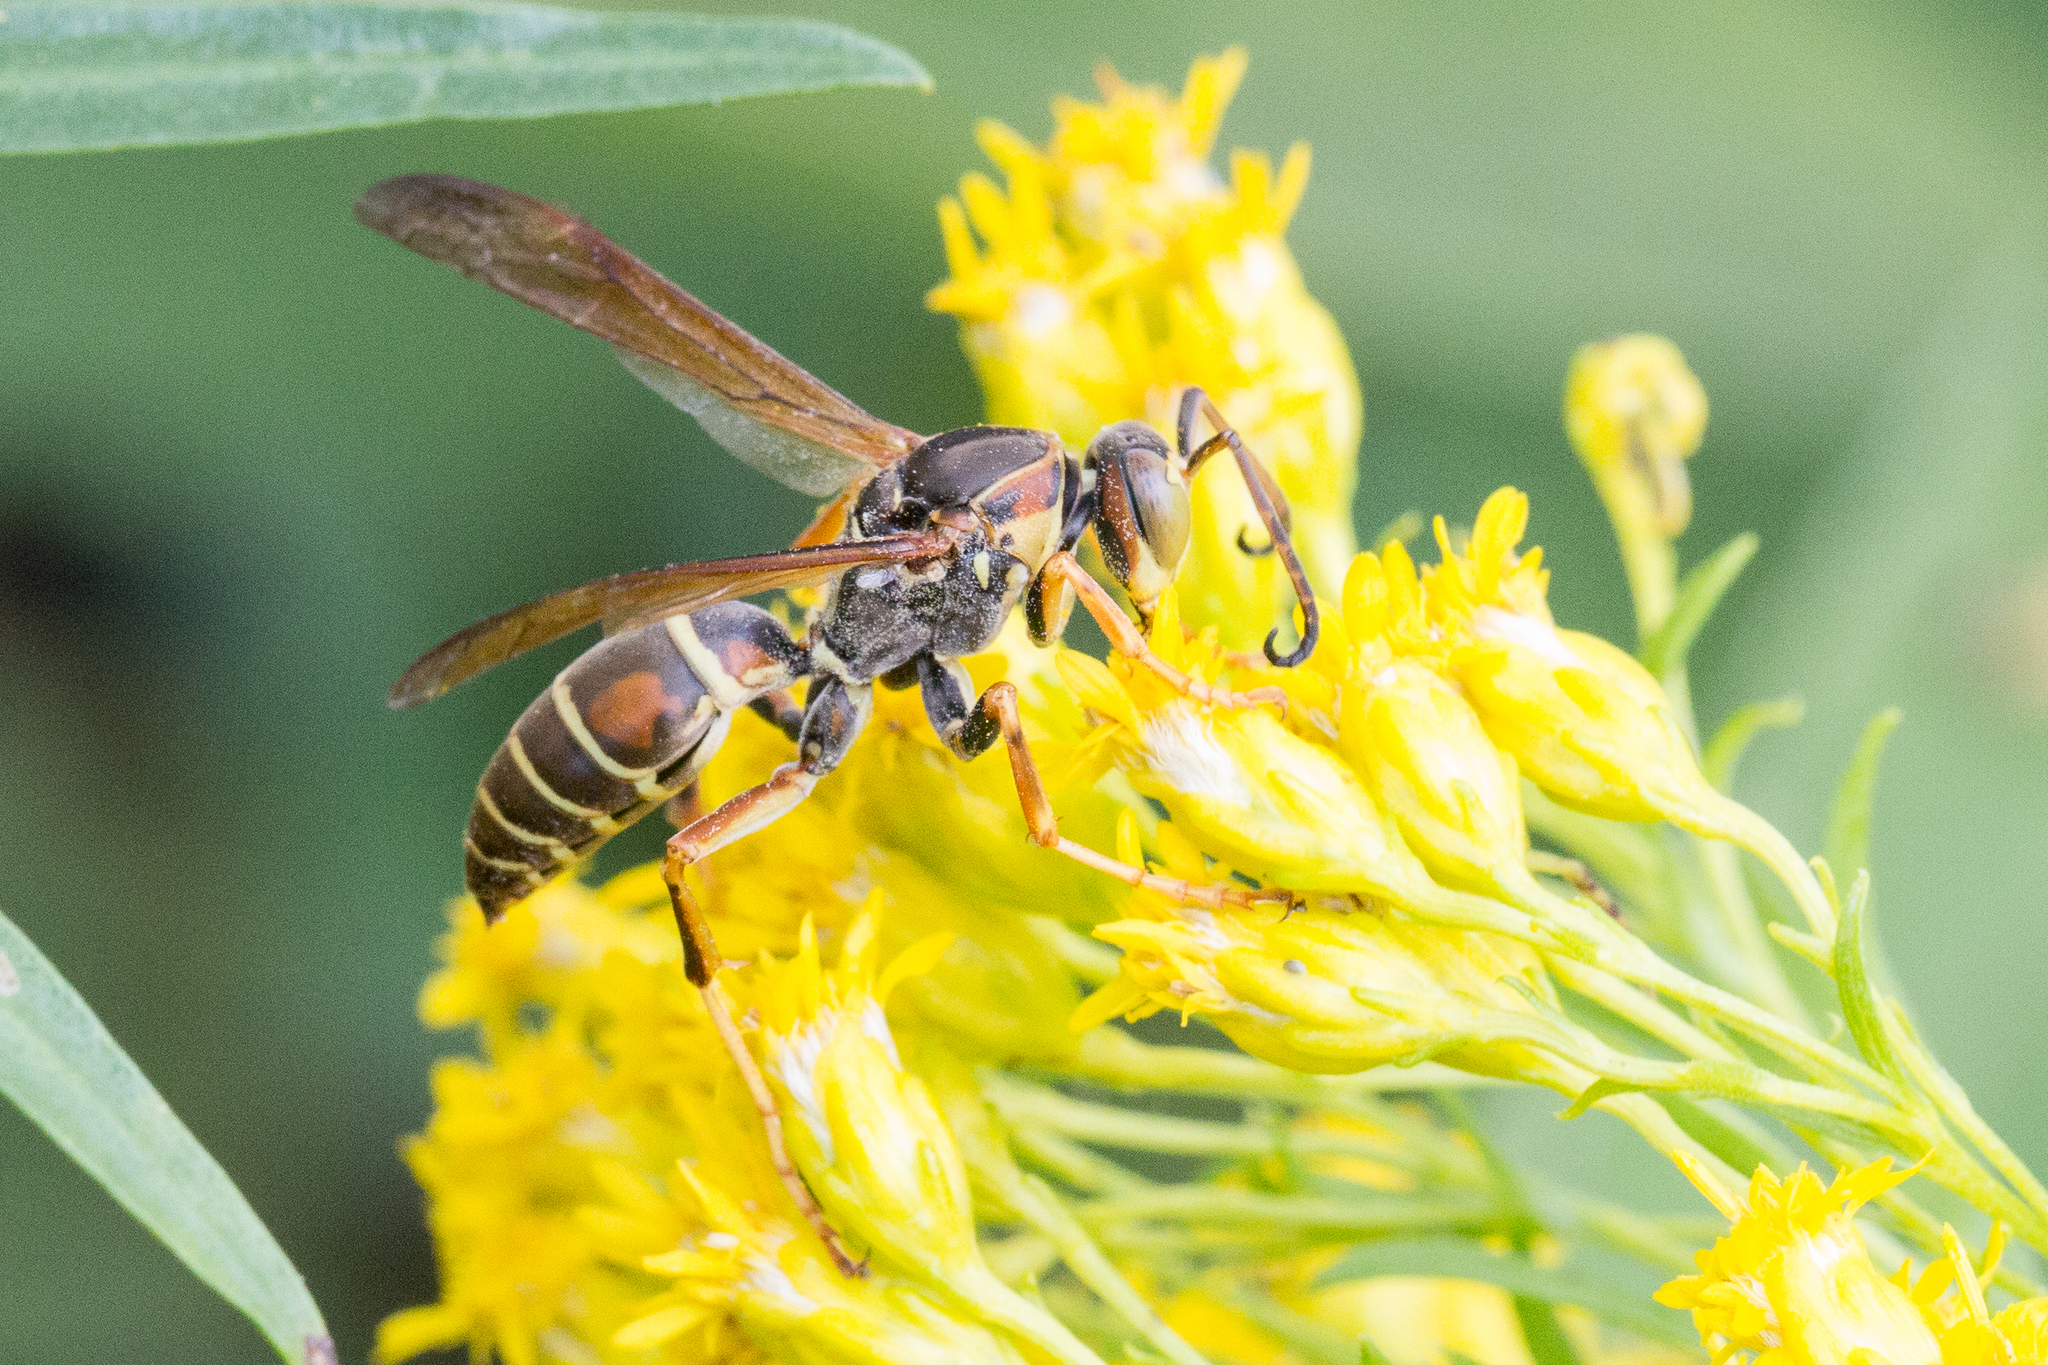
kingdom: Animalia
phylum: Arthropoda
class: Insecta
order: Hymenoptera
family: Eumenidae
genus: Polistes
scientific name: Polistes fuscatus
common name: Dark paper wasp
